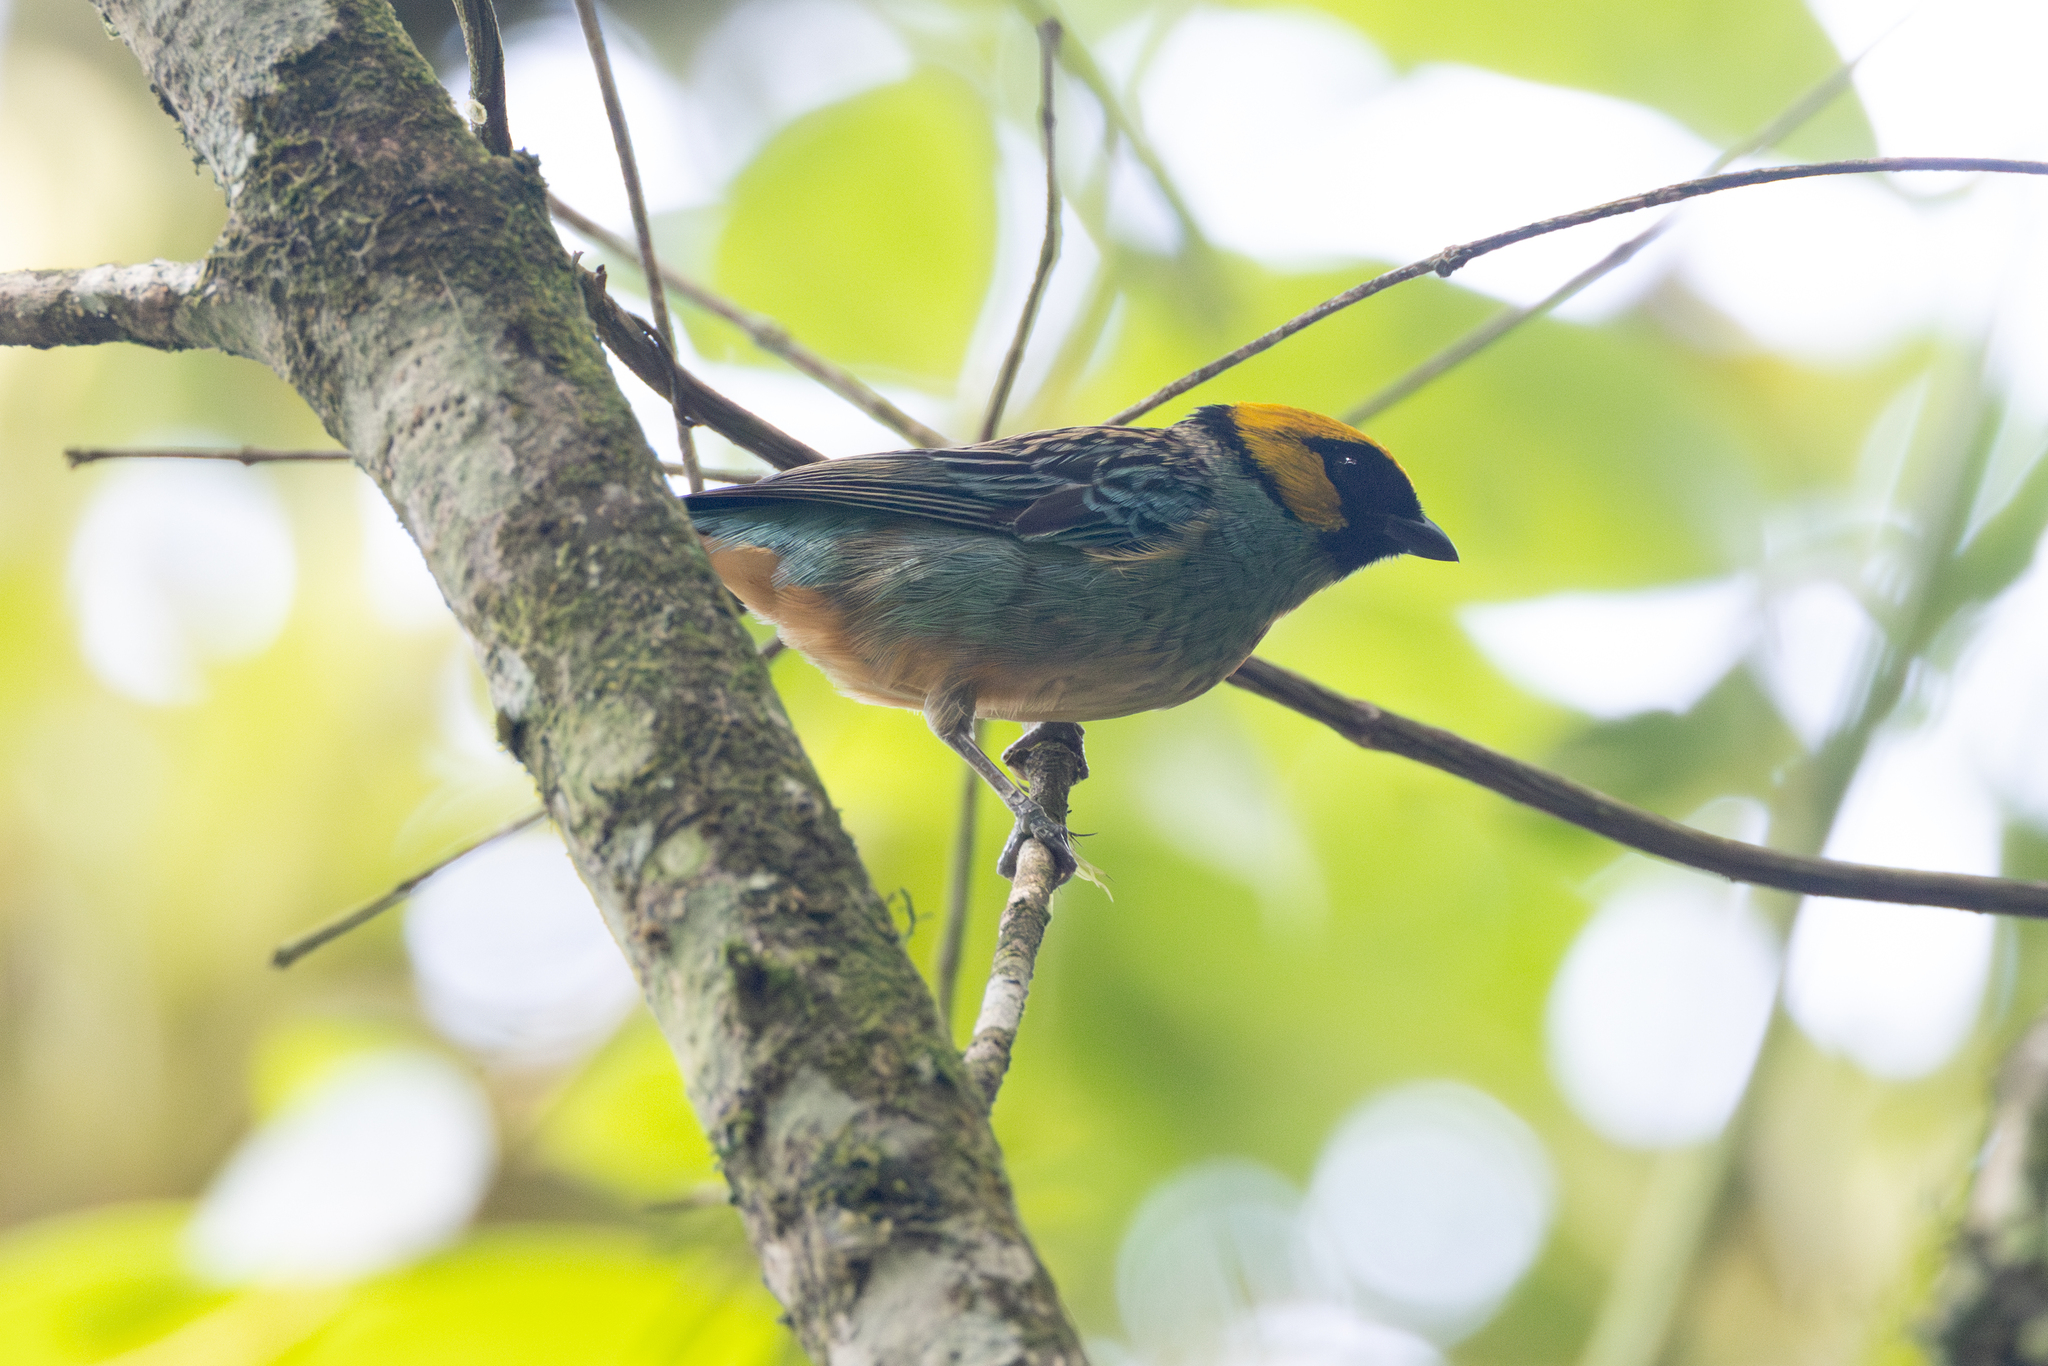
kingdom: Animalia
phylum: Chordata
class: Aves
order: Passeriformes
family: Thraupidae
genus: Tangara
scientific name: Tangara xanthocephala
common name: Saffron-crowned tanager
